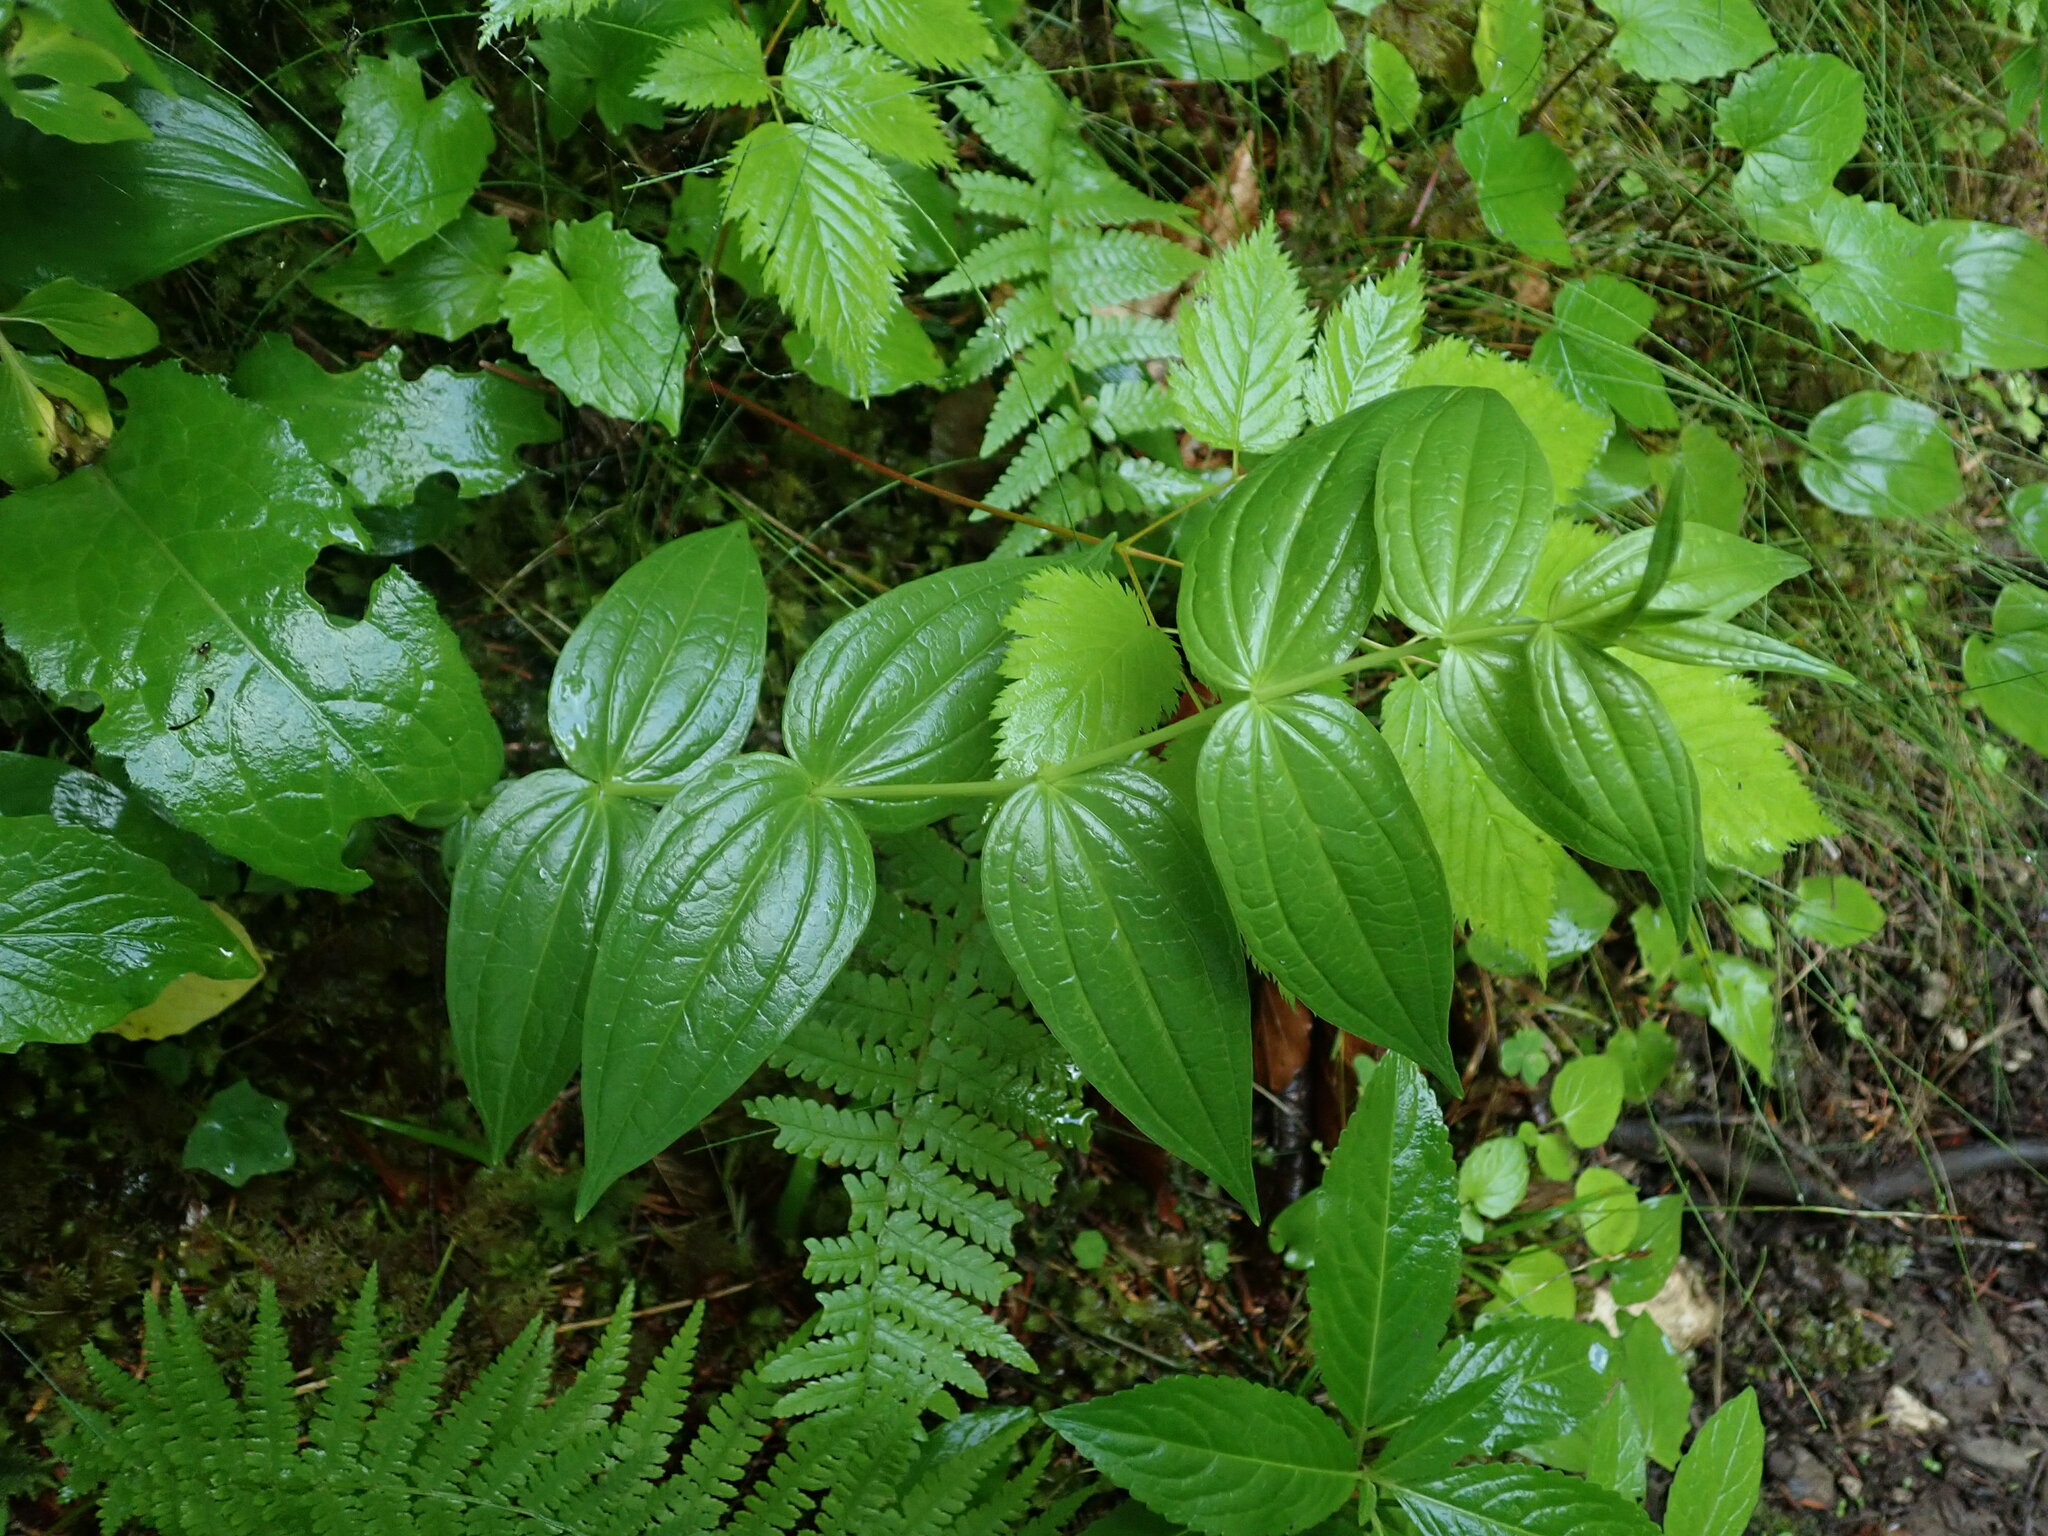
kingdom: Plantae
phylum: Tracheophyta
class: Magnoliopsida
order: Gentianales
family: Gentianaceae
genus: Gentiana
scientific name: Gentiana asclepiadea
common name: Willow gentian
